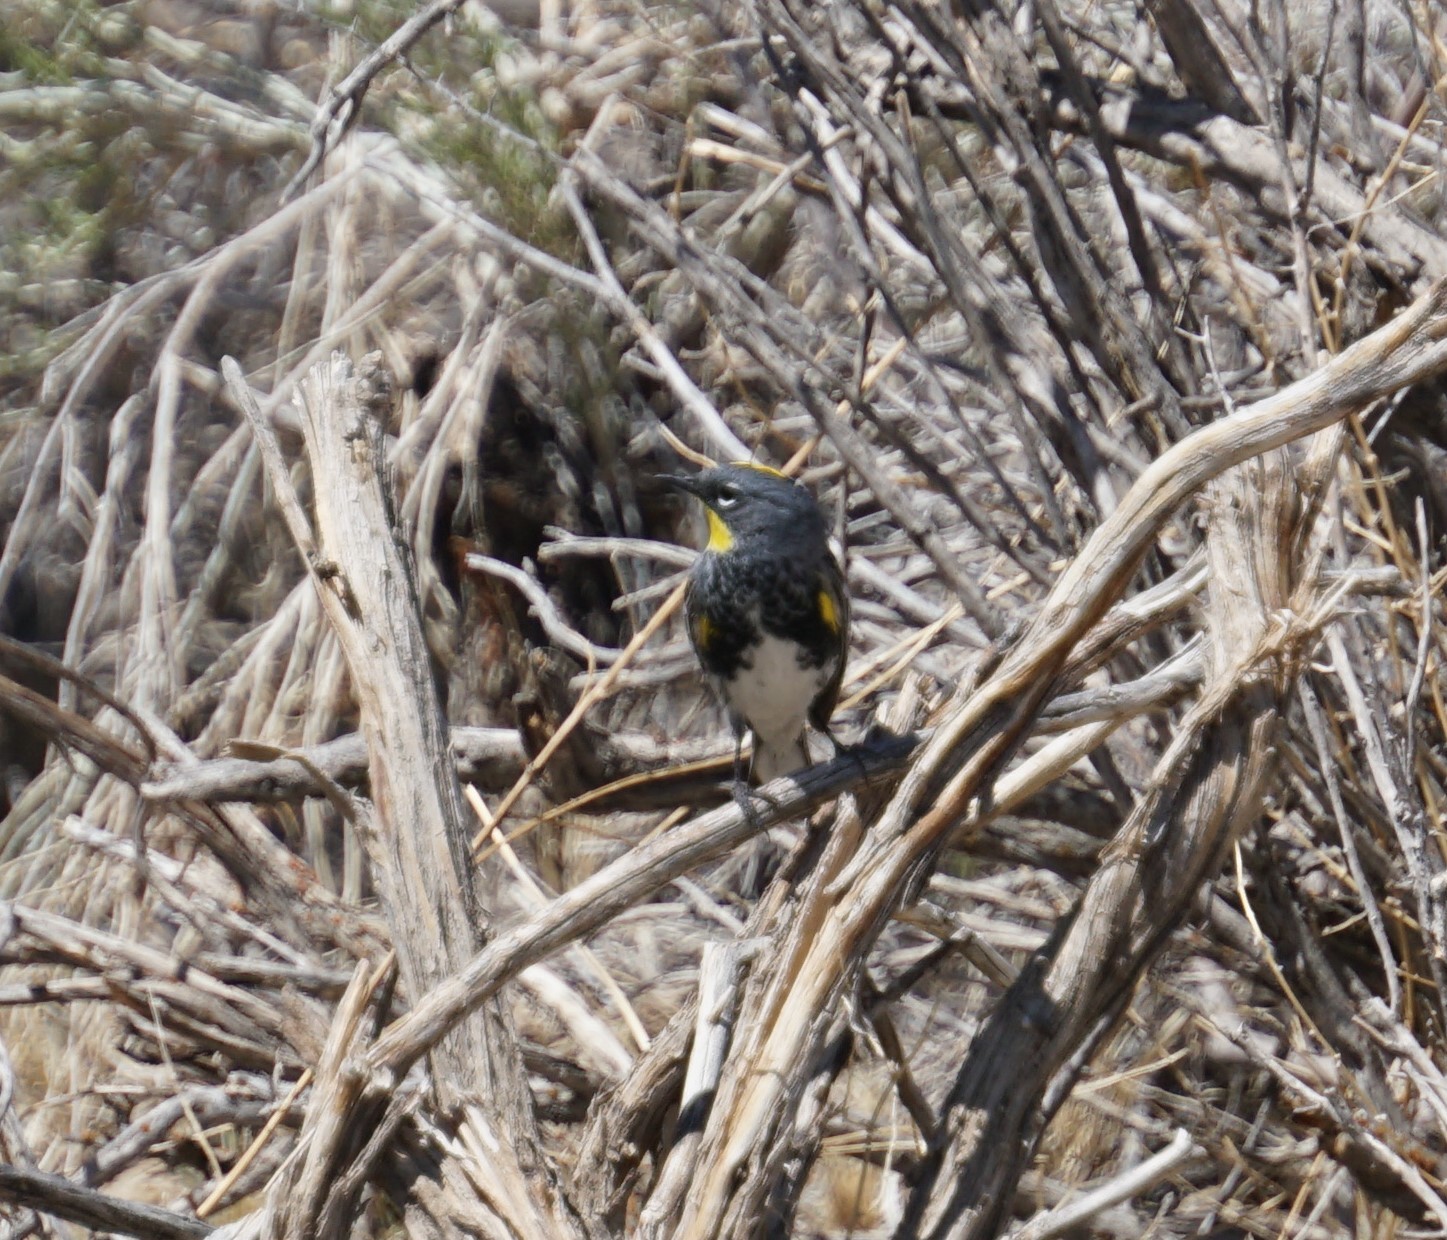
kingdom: Animalia
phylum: Chordata
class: Aves
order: Passeriformes
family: Parulidae
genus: Setophaga
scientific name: Setophaga auduboni
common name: Audubon's warbler
